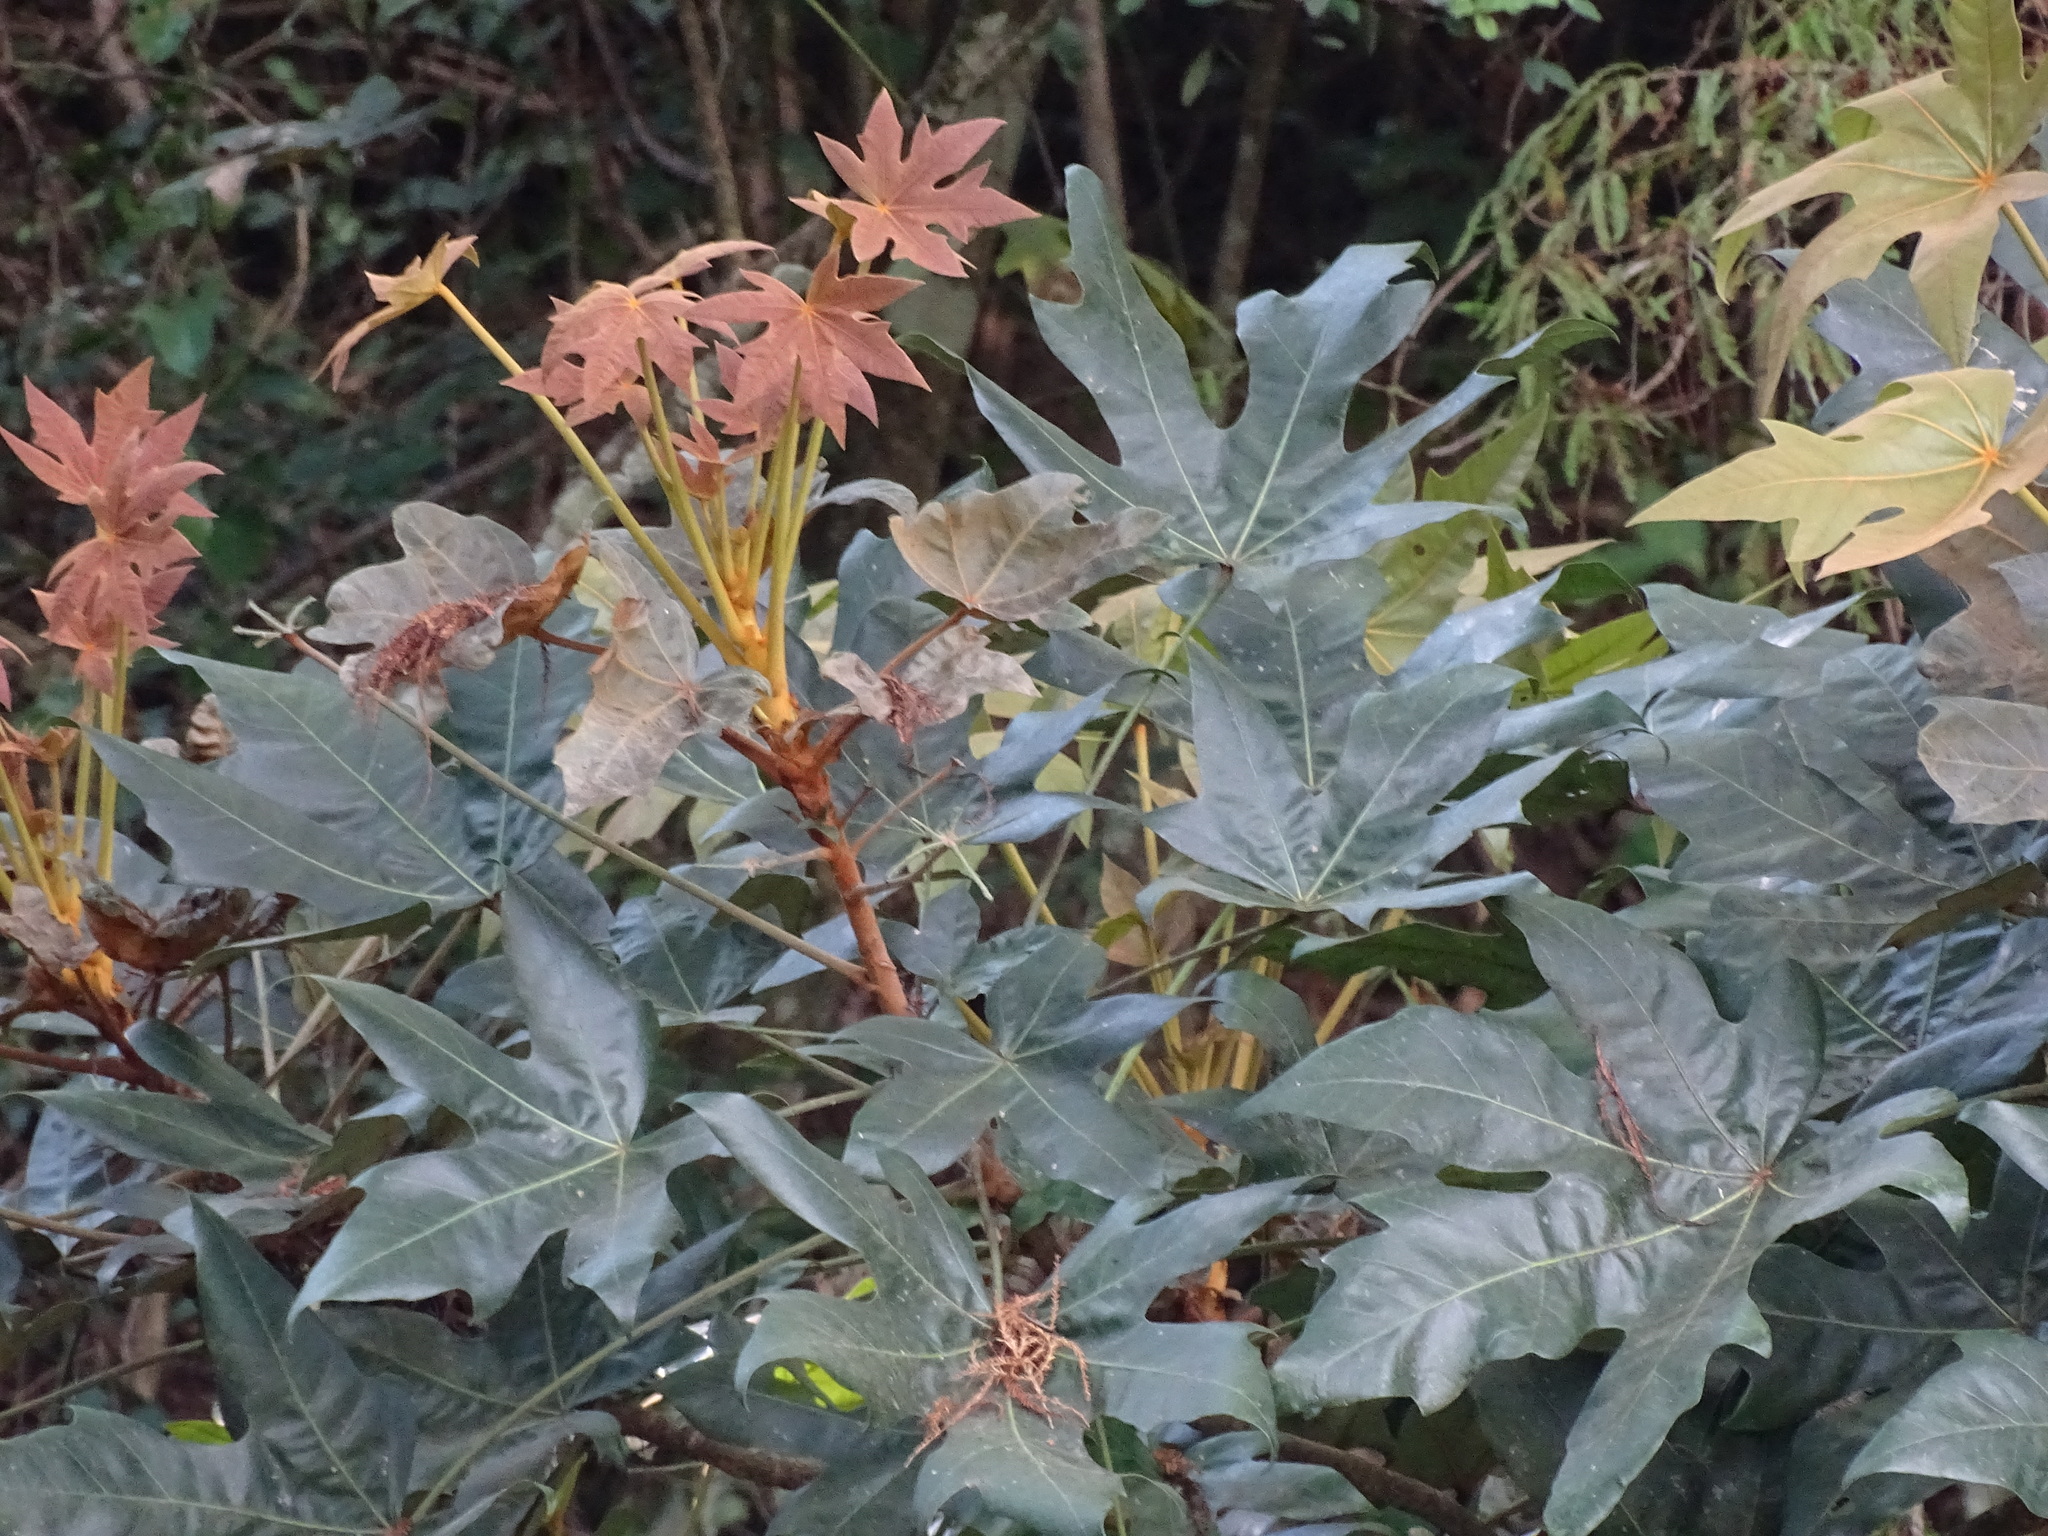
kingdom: Plantae
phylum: Tracheophyta
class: Magnoliopsida
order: Apiales
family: Araliaceae
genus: Oreopanax
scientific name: Oreopanax geminatus
